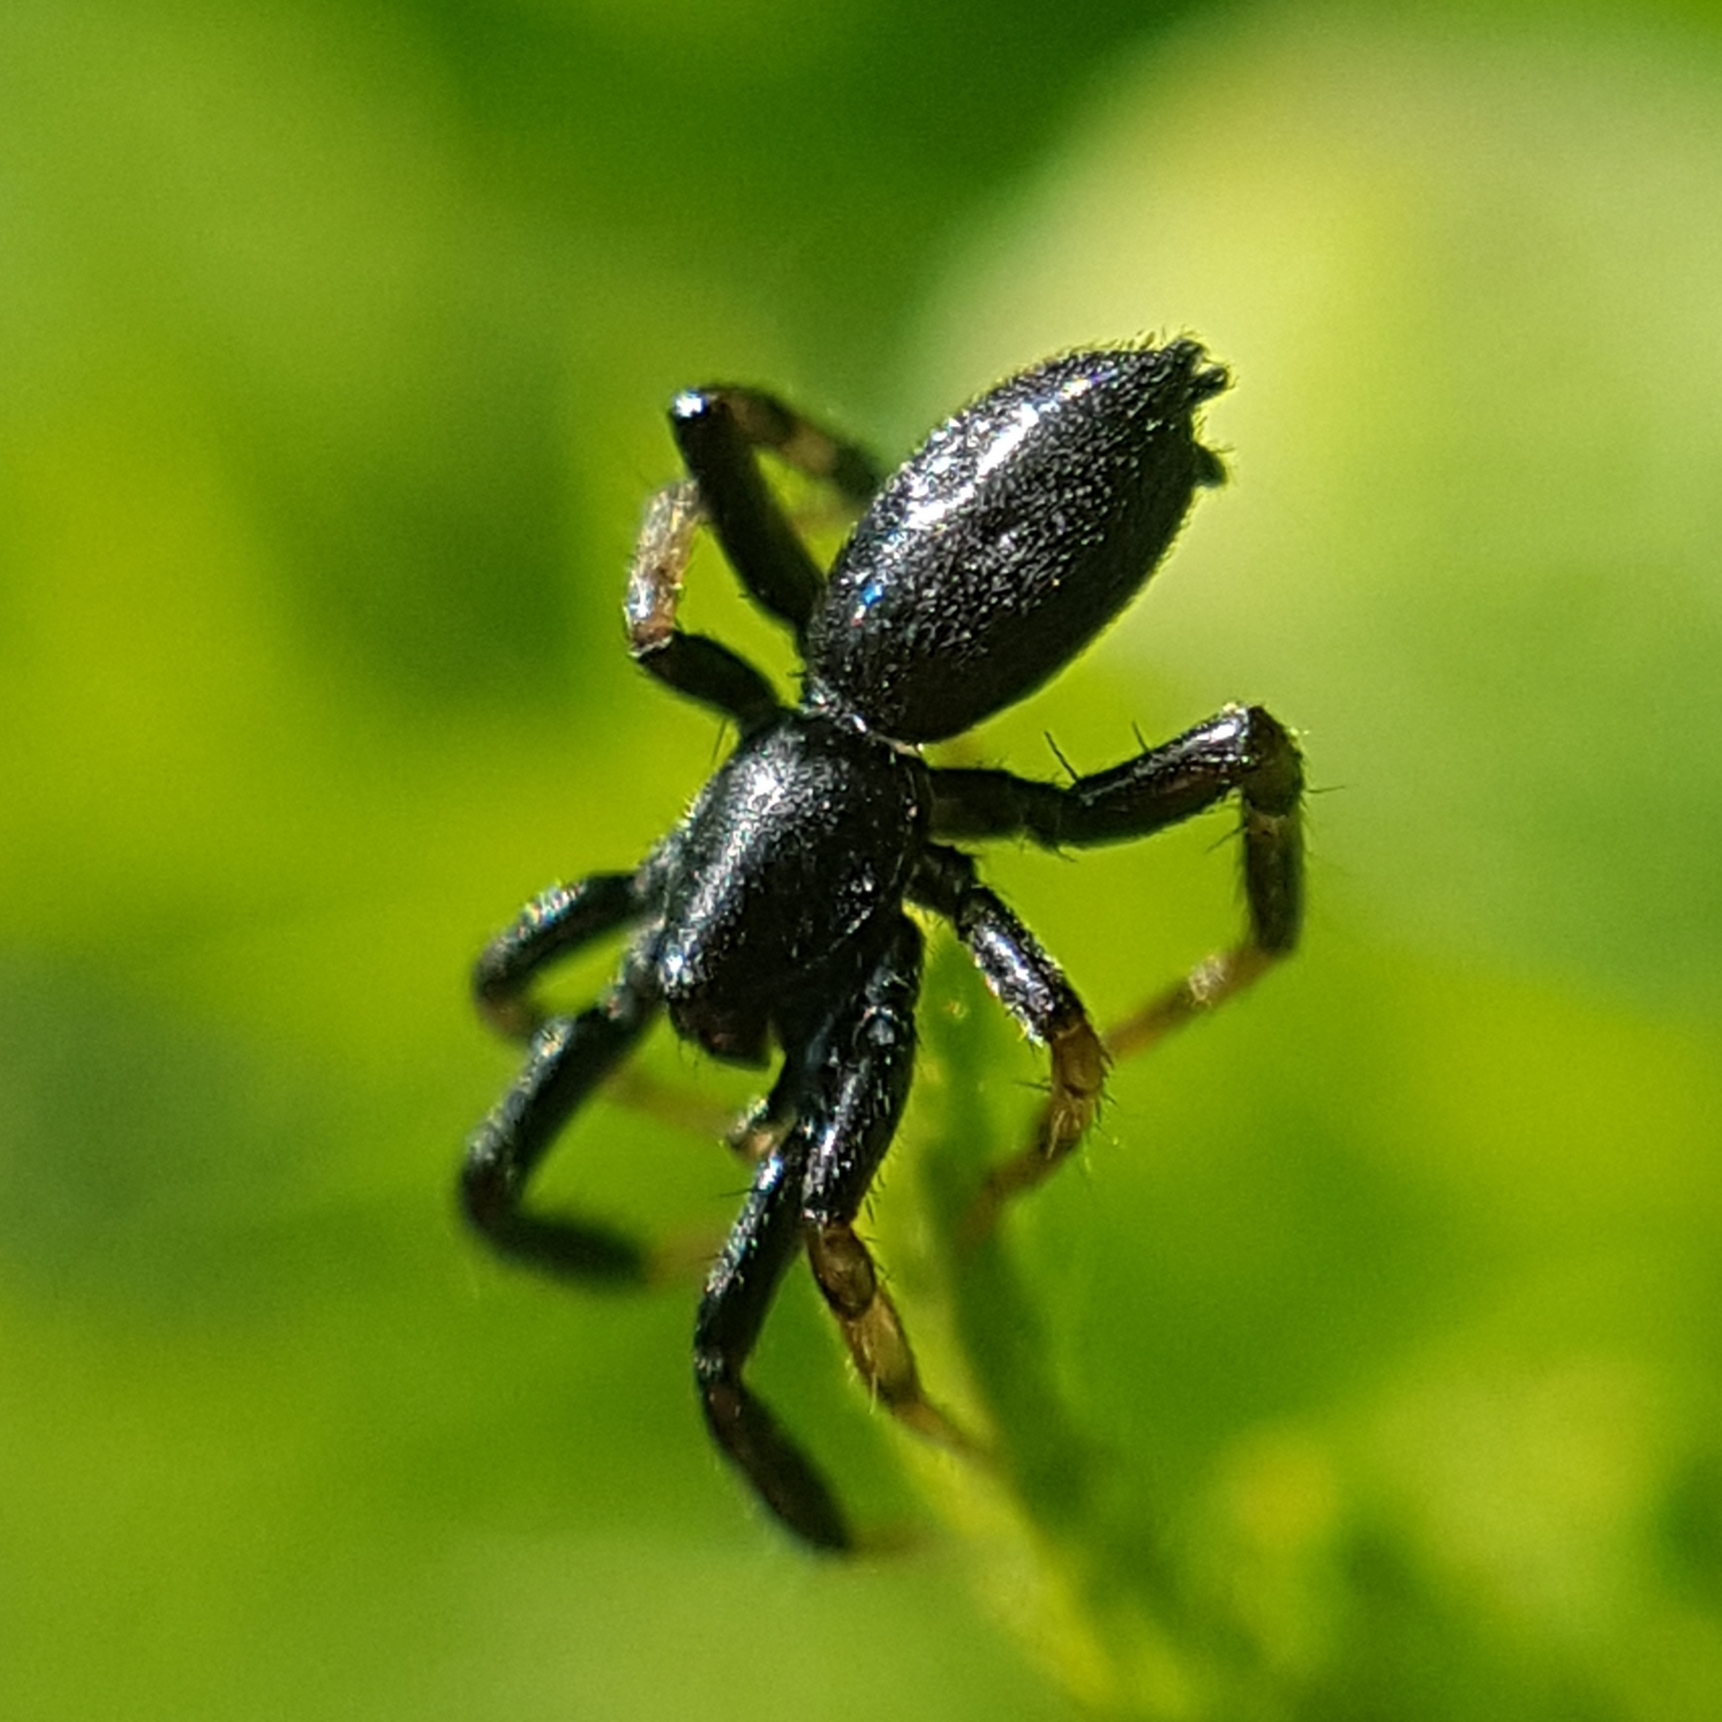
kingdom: Animalia
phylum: Arthropoda
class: Arachnida
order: Araneae
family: Gnaphosidae
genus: Setaphis
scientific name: Setaphis carmeli
